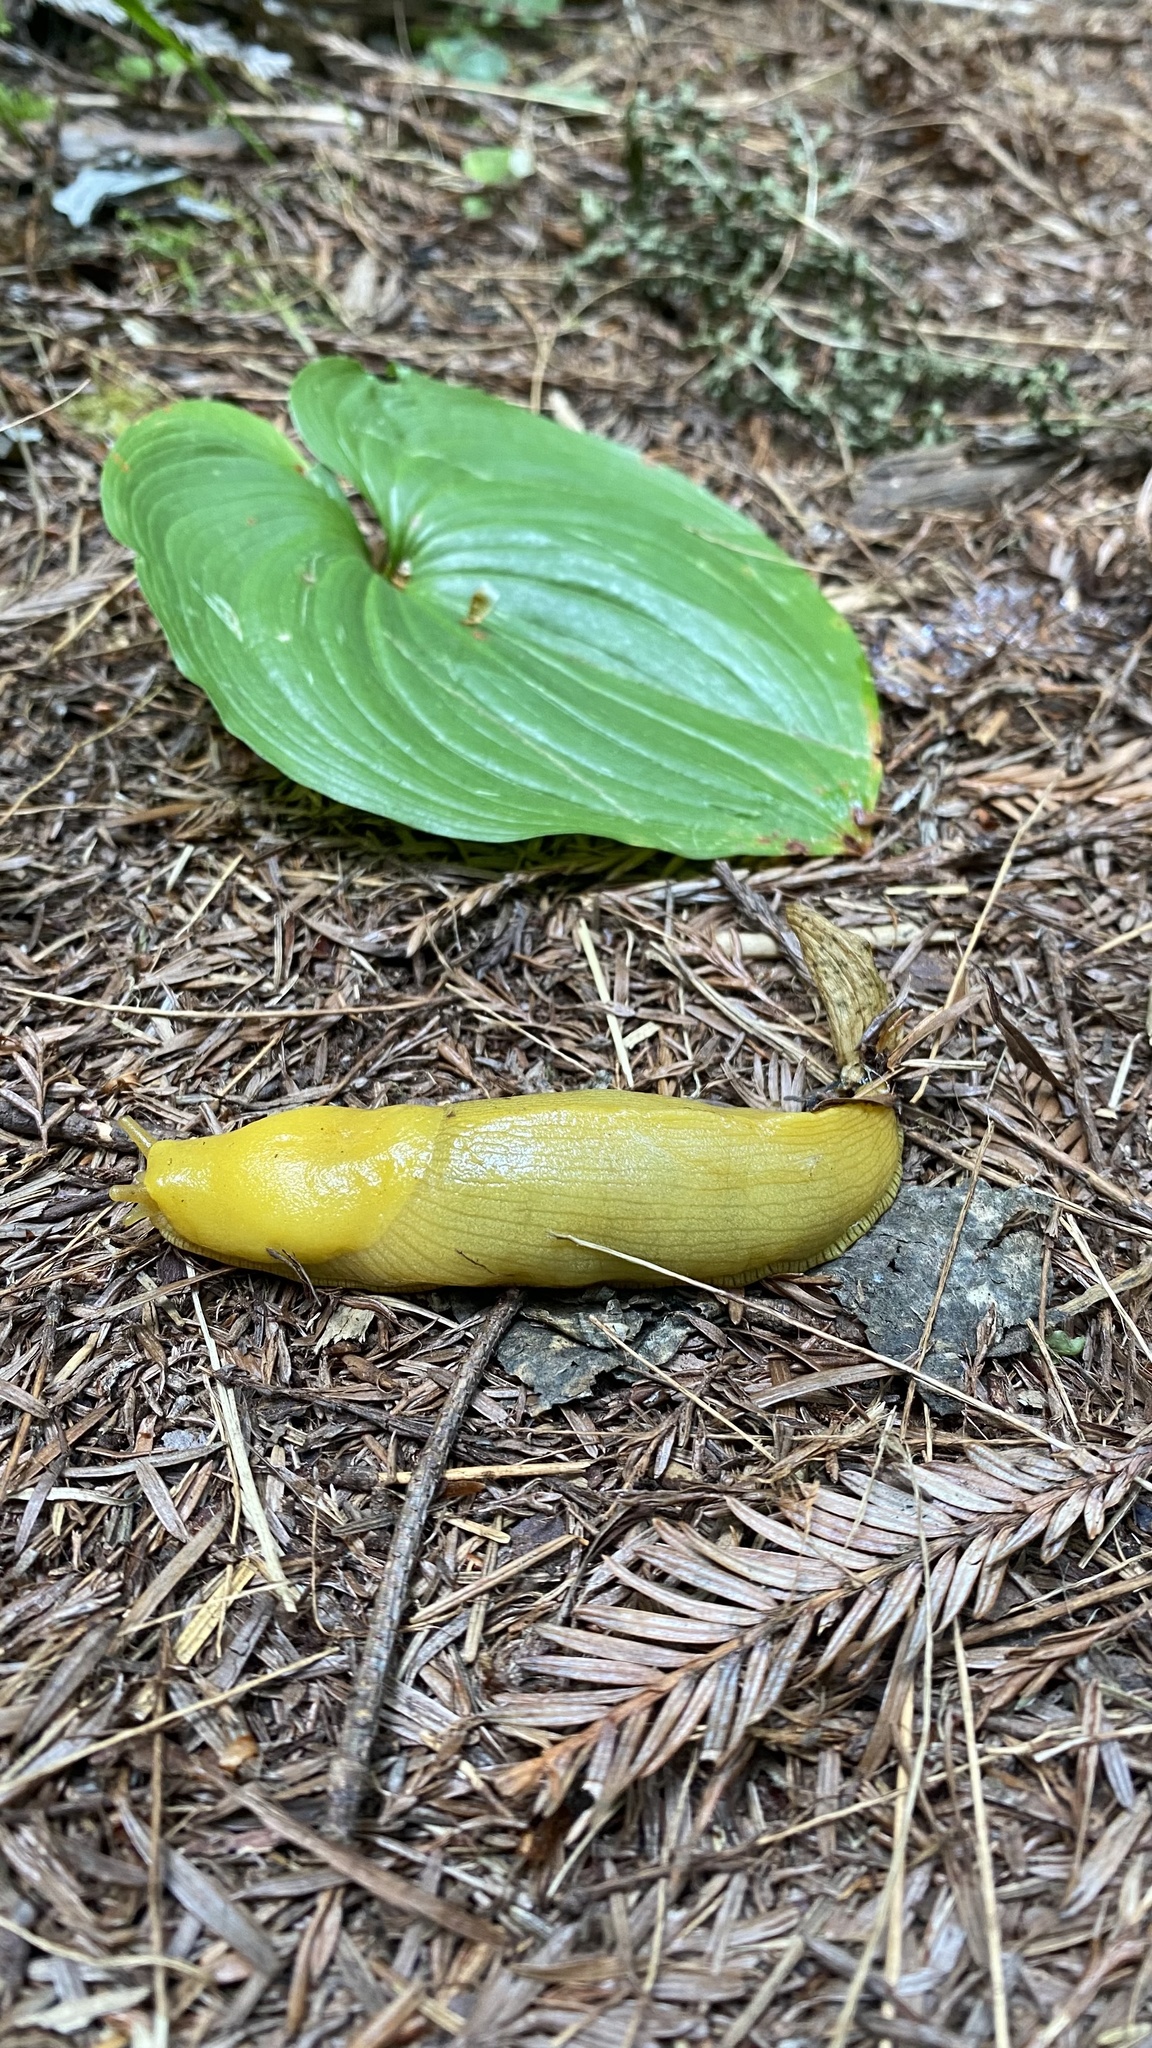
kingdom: Animalia
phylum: Mollusca
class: Gastropoda
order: Stylommatophora
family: Ariolimacidae
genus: Ariolimax
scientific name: Ariolimax columbianus
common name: Pacific banana slug
